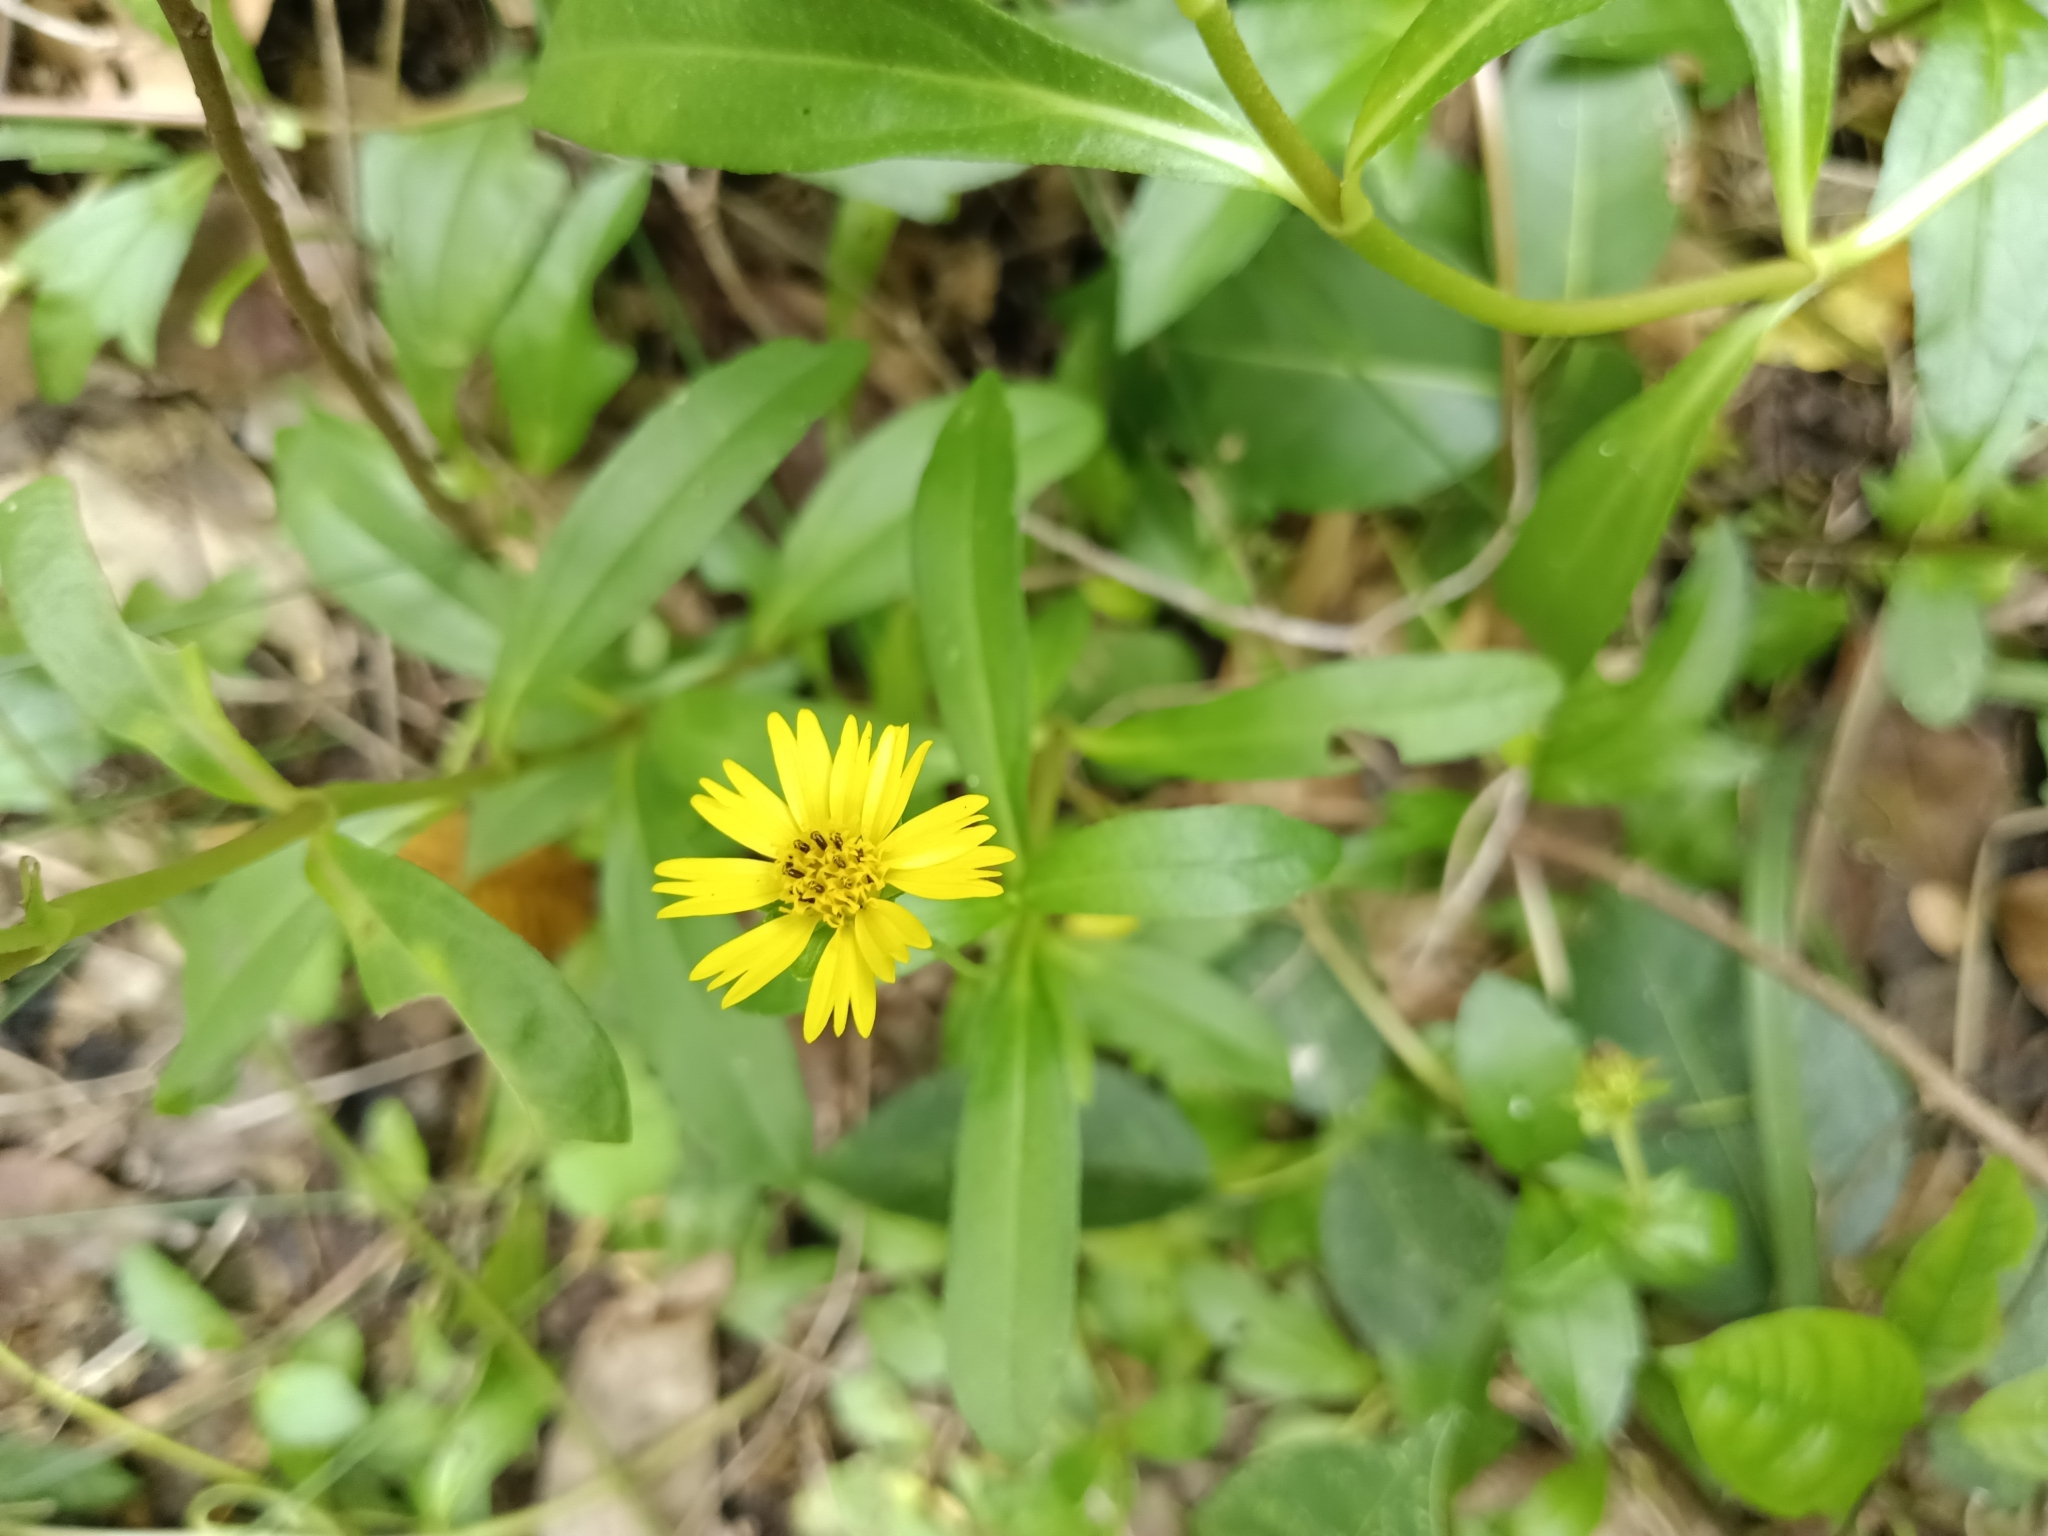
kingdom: Plantae
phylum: Tracheophyta
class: Magnoliopsida
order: Asterales
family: Asteraceae
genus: Sphagneticola
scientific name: Sphagneticola trilobata
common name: Bay biscayne creeping-oxeye
